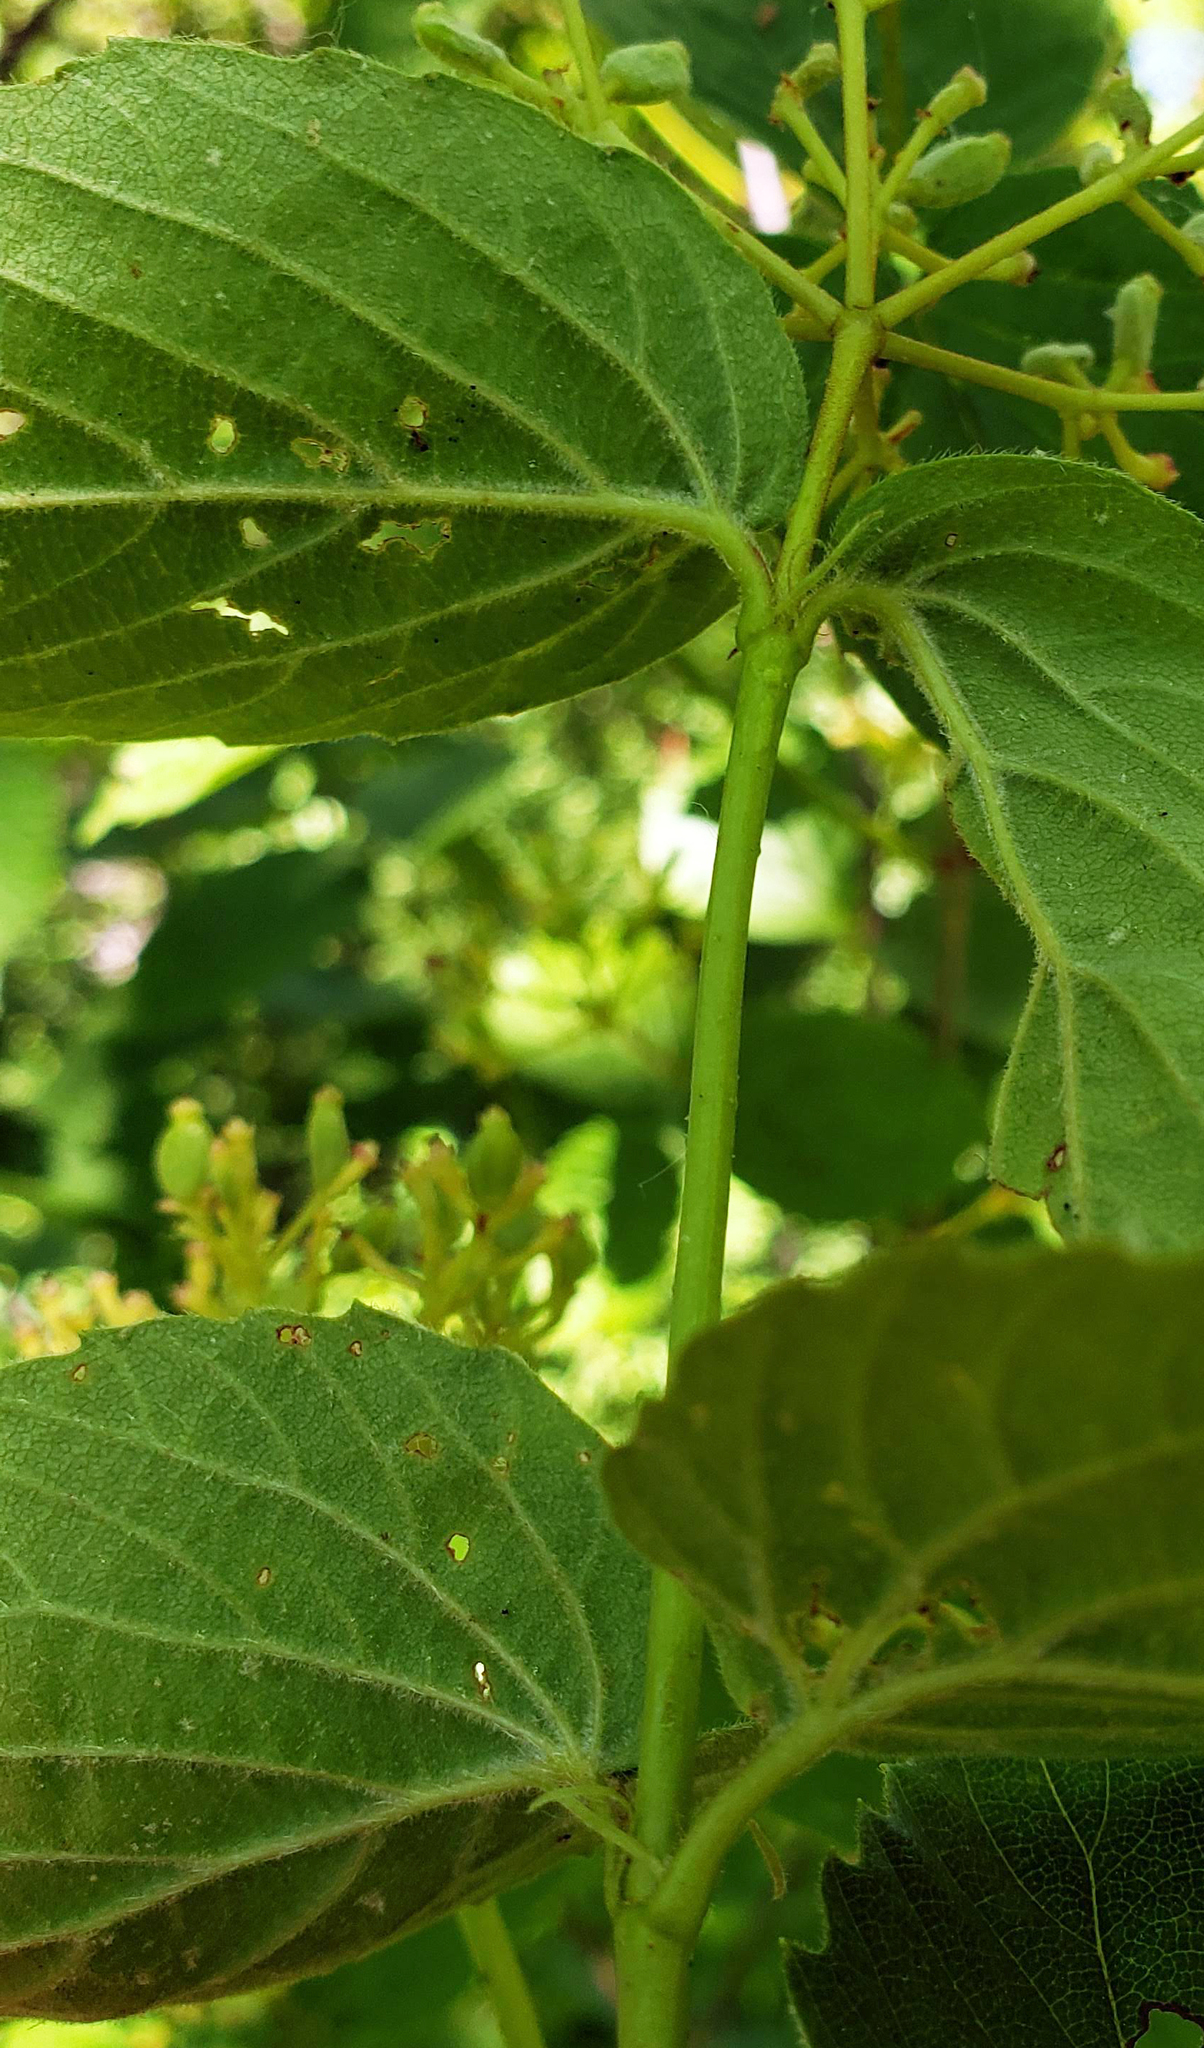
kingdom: Plantae
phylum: Tracheophyta
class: Magnoliopsida
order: Dipsacales
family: Viburnaceae
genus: Viburnum
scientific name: Viburnum rafinesqueanum
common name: Downy arrow-wood
